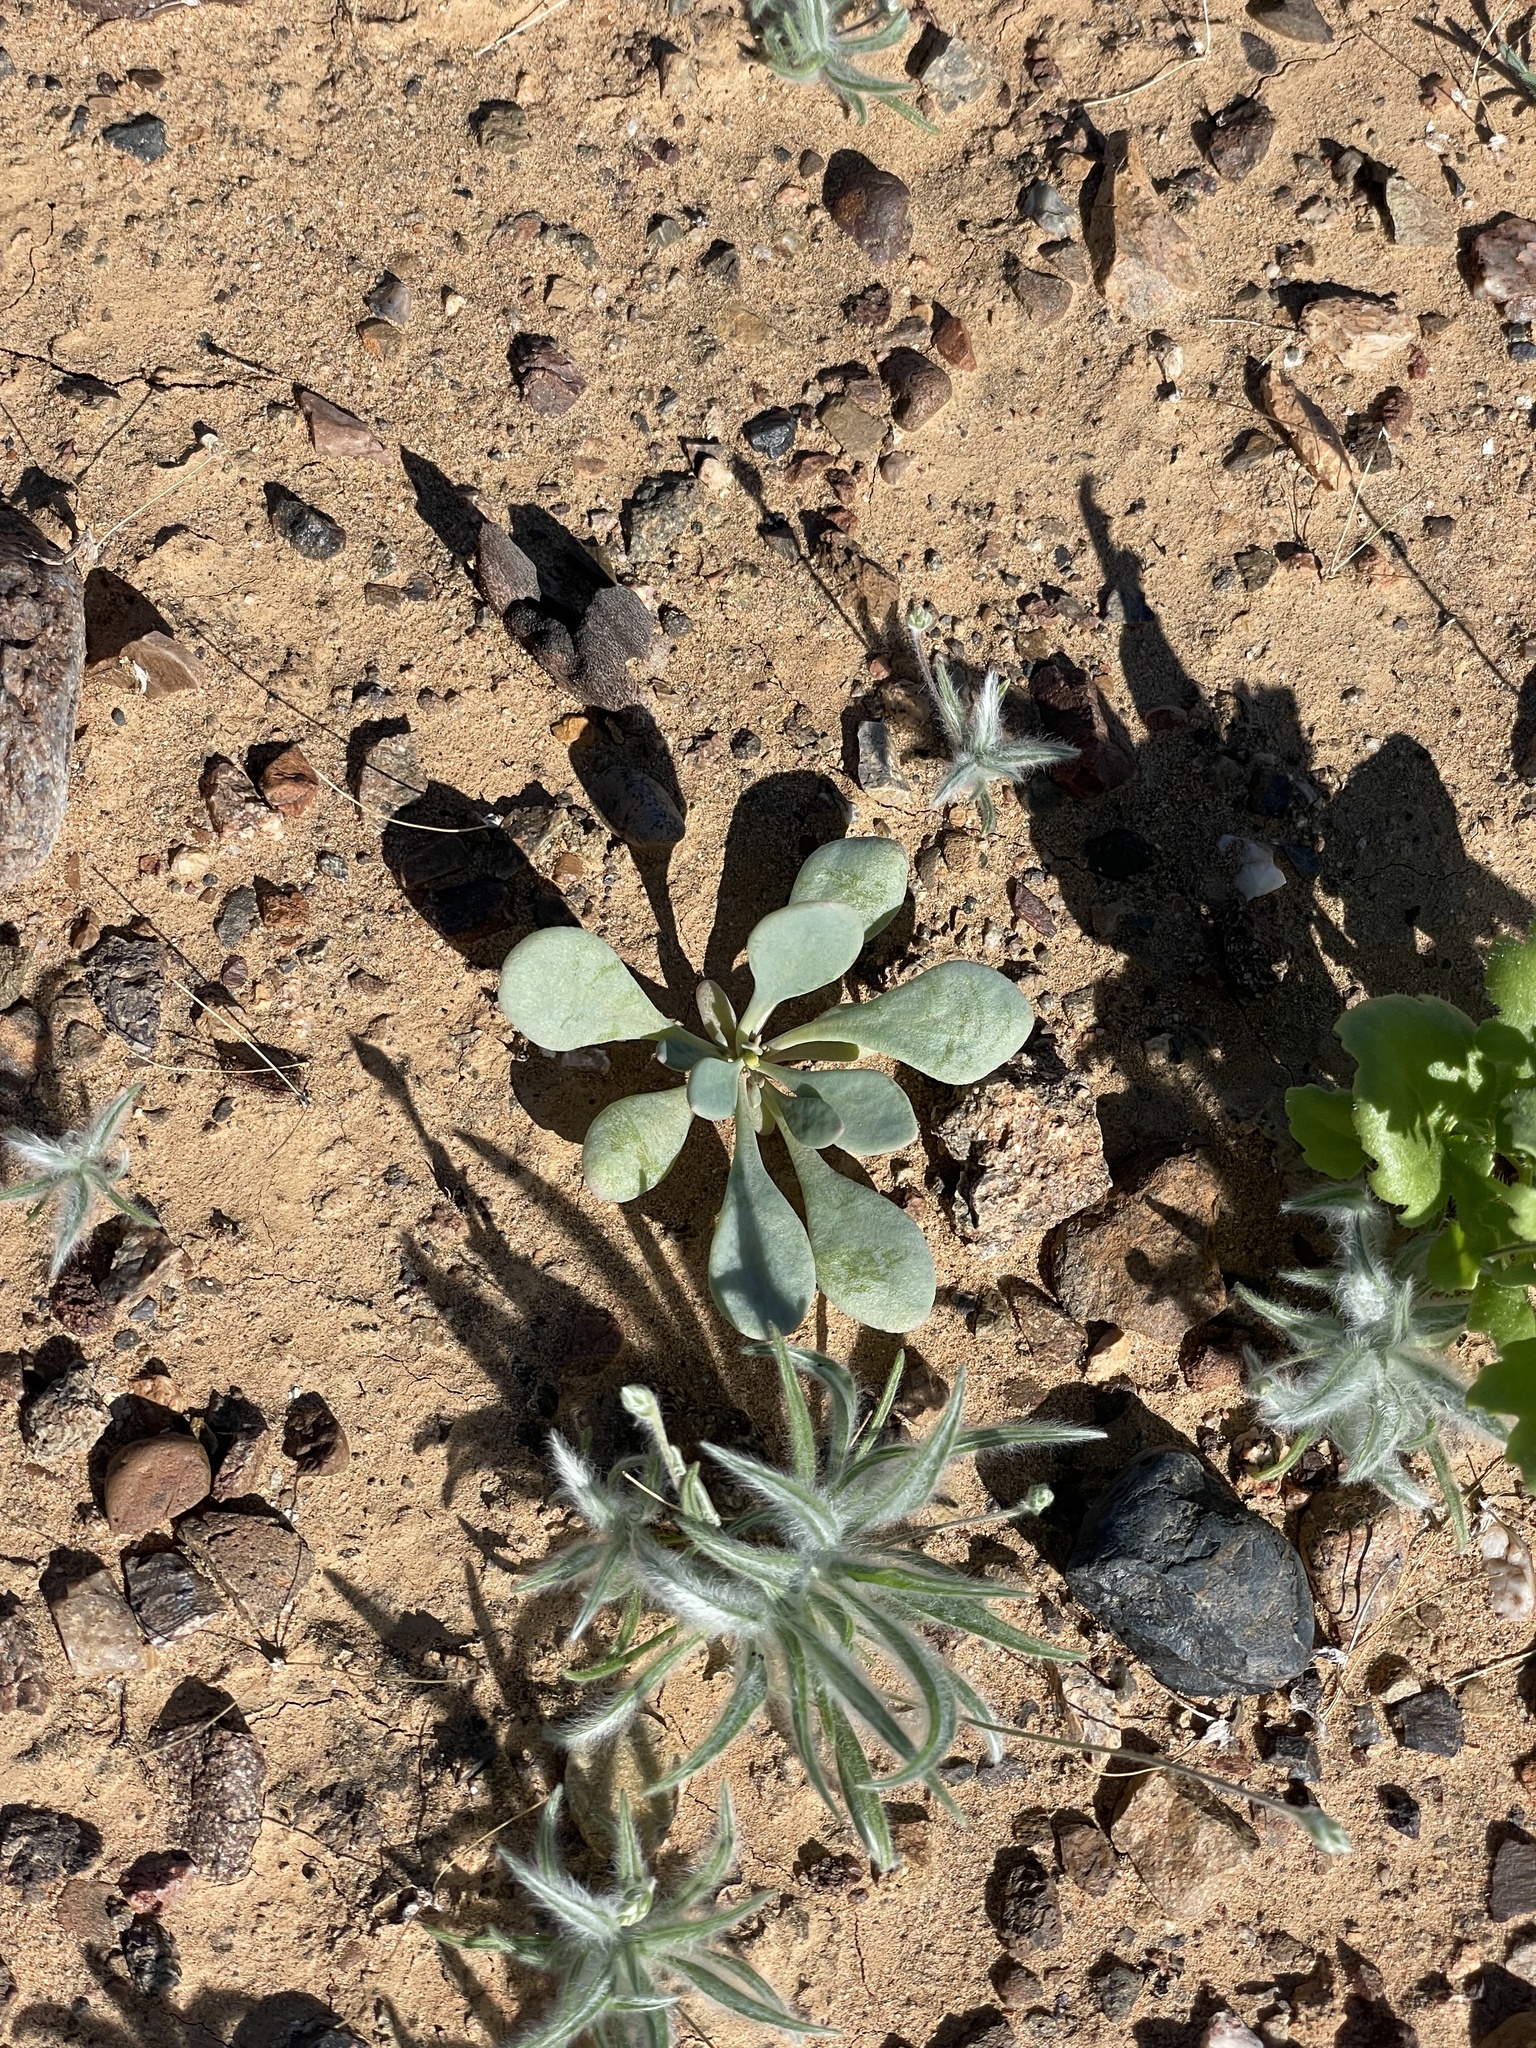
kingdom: Plantae
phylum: Tracheophyta
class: Magnoliopsida
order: Caryophyllales
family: Montiaceae
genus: Cistanthe
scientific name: Cistanthe maritima
